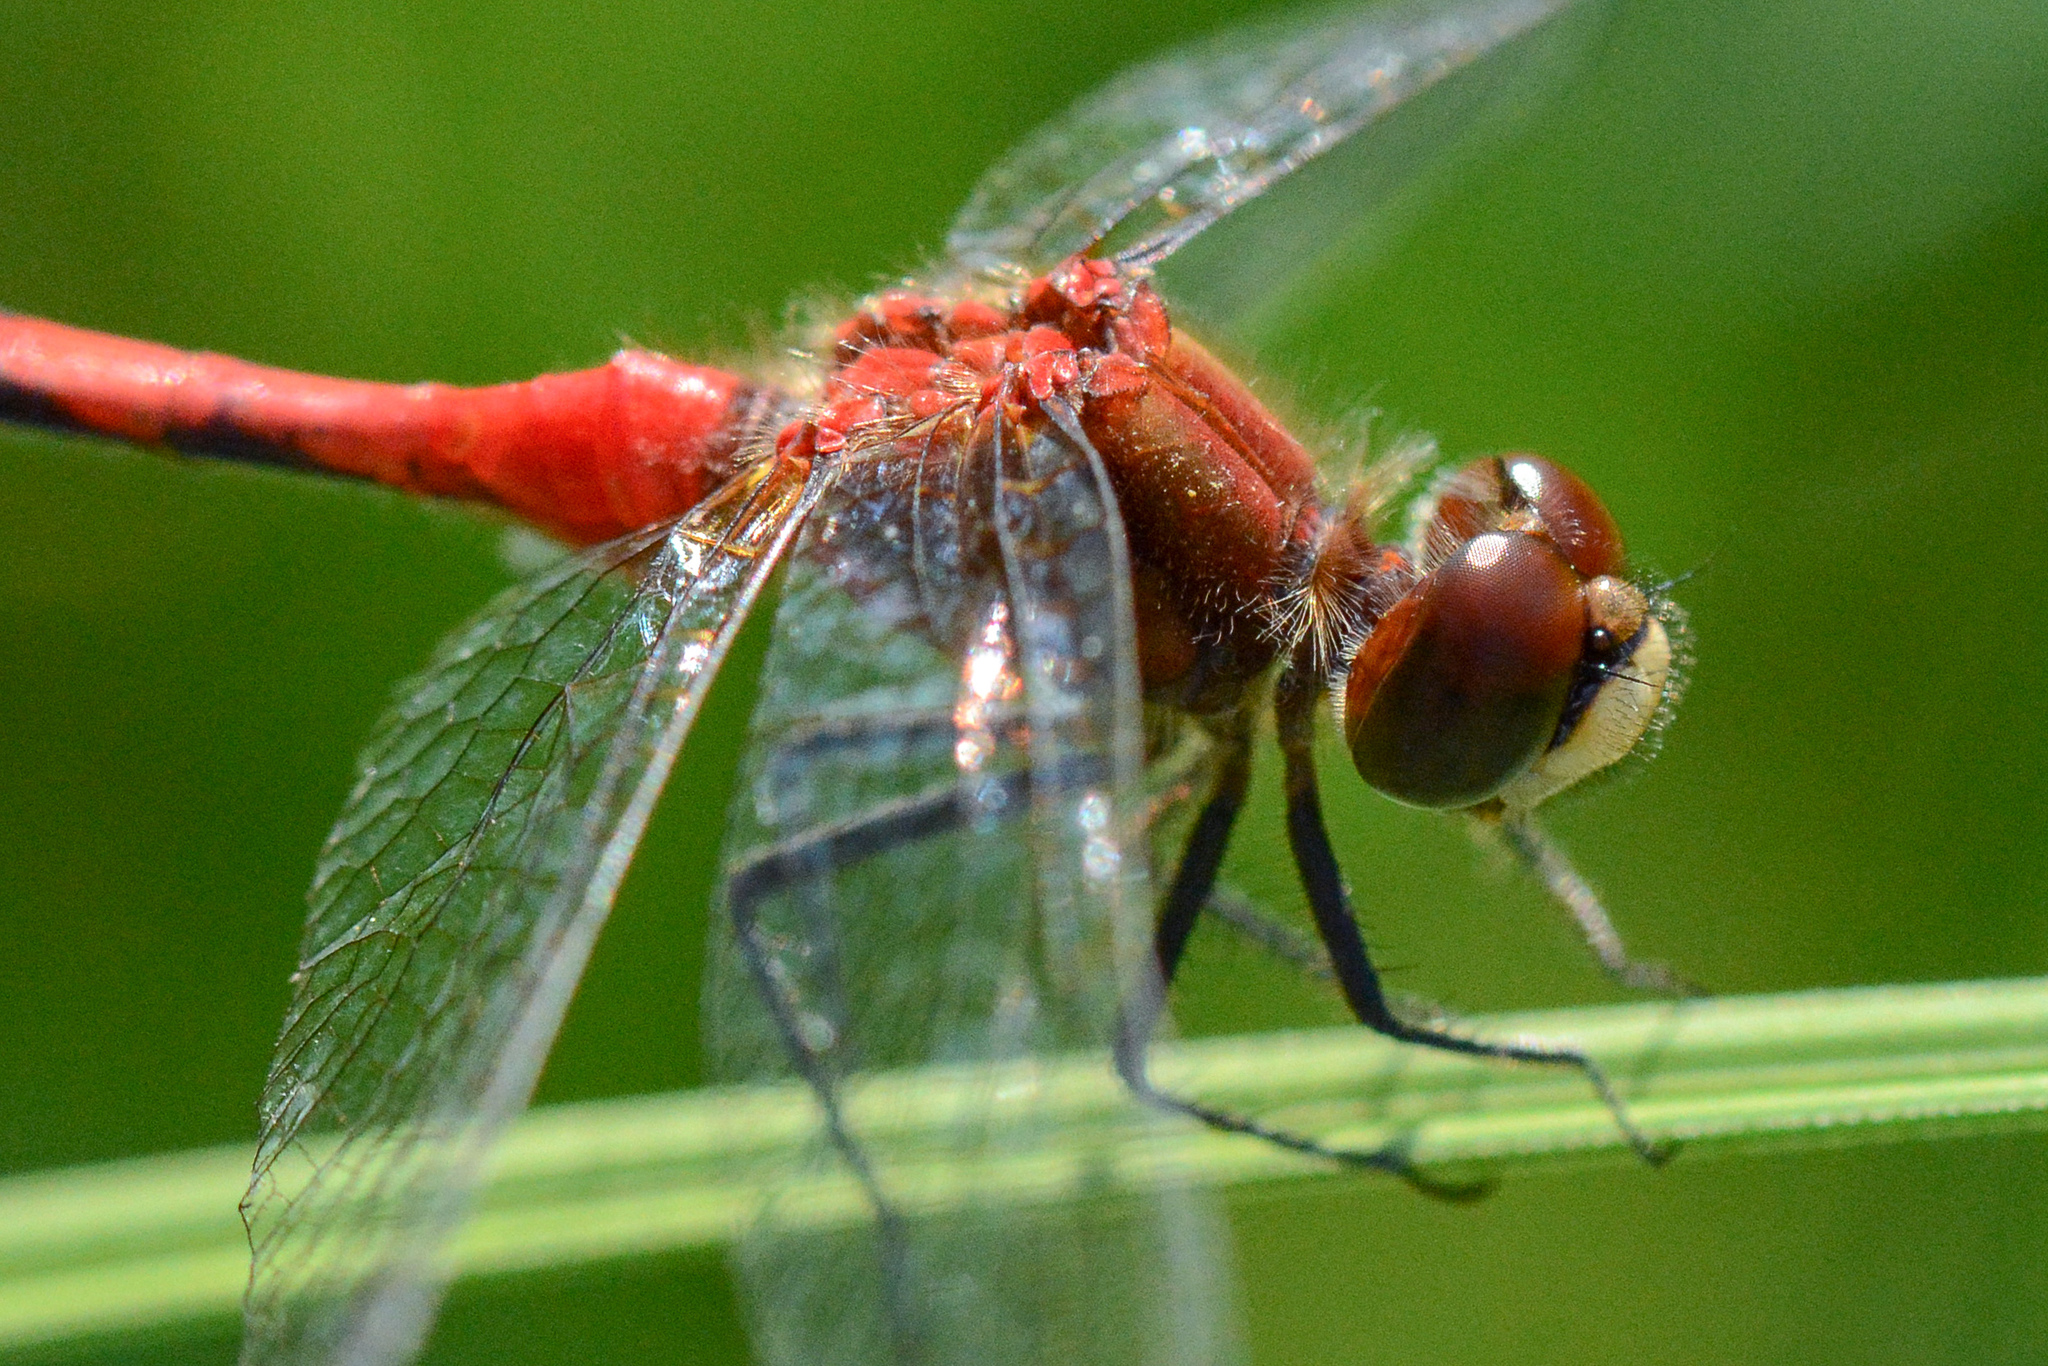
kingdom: Animalia
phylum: Arthropoda
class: Insecta
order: Odonata
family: Libellulidae
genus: Sympetrum
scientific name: Sympetrum obtrusum
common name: White-faced meadowhawk
